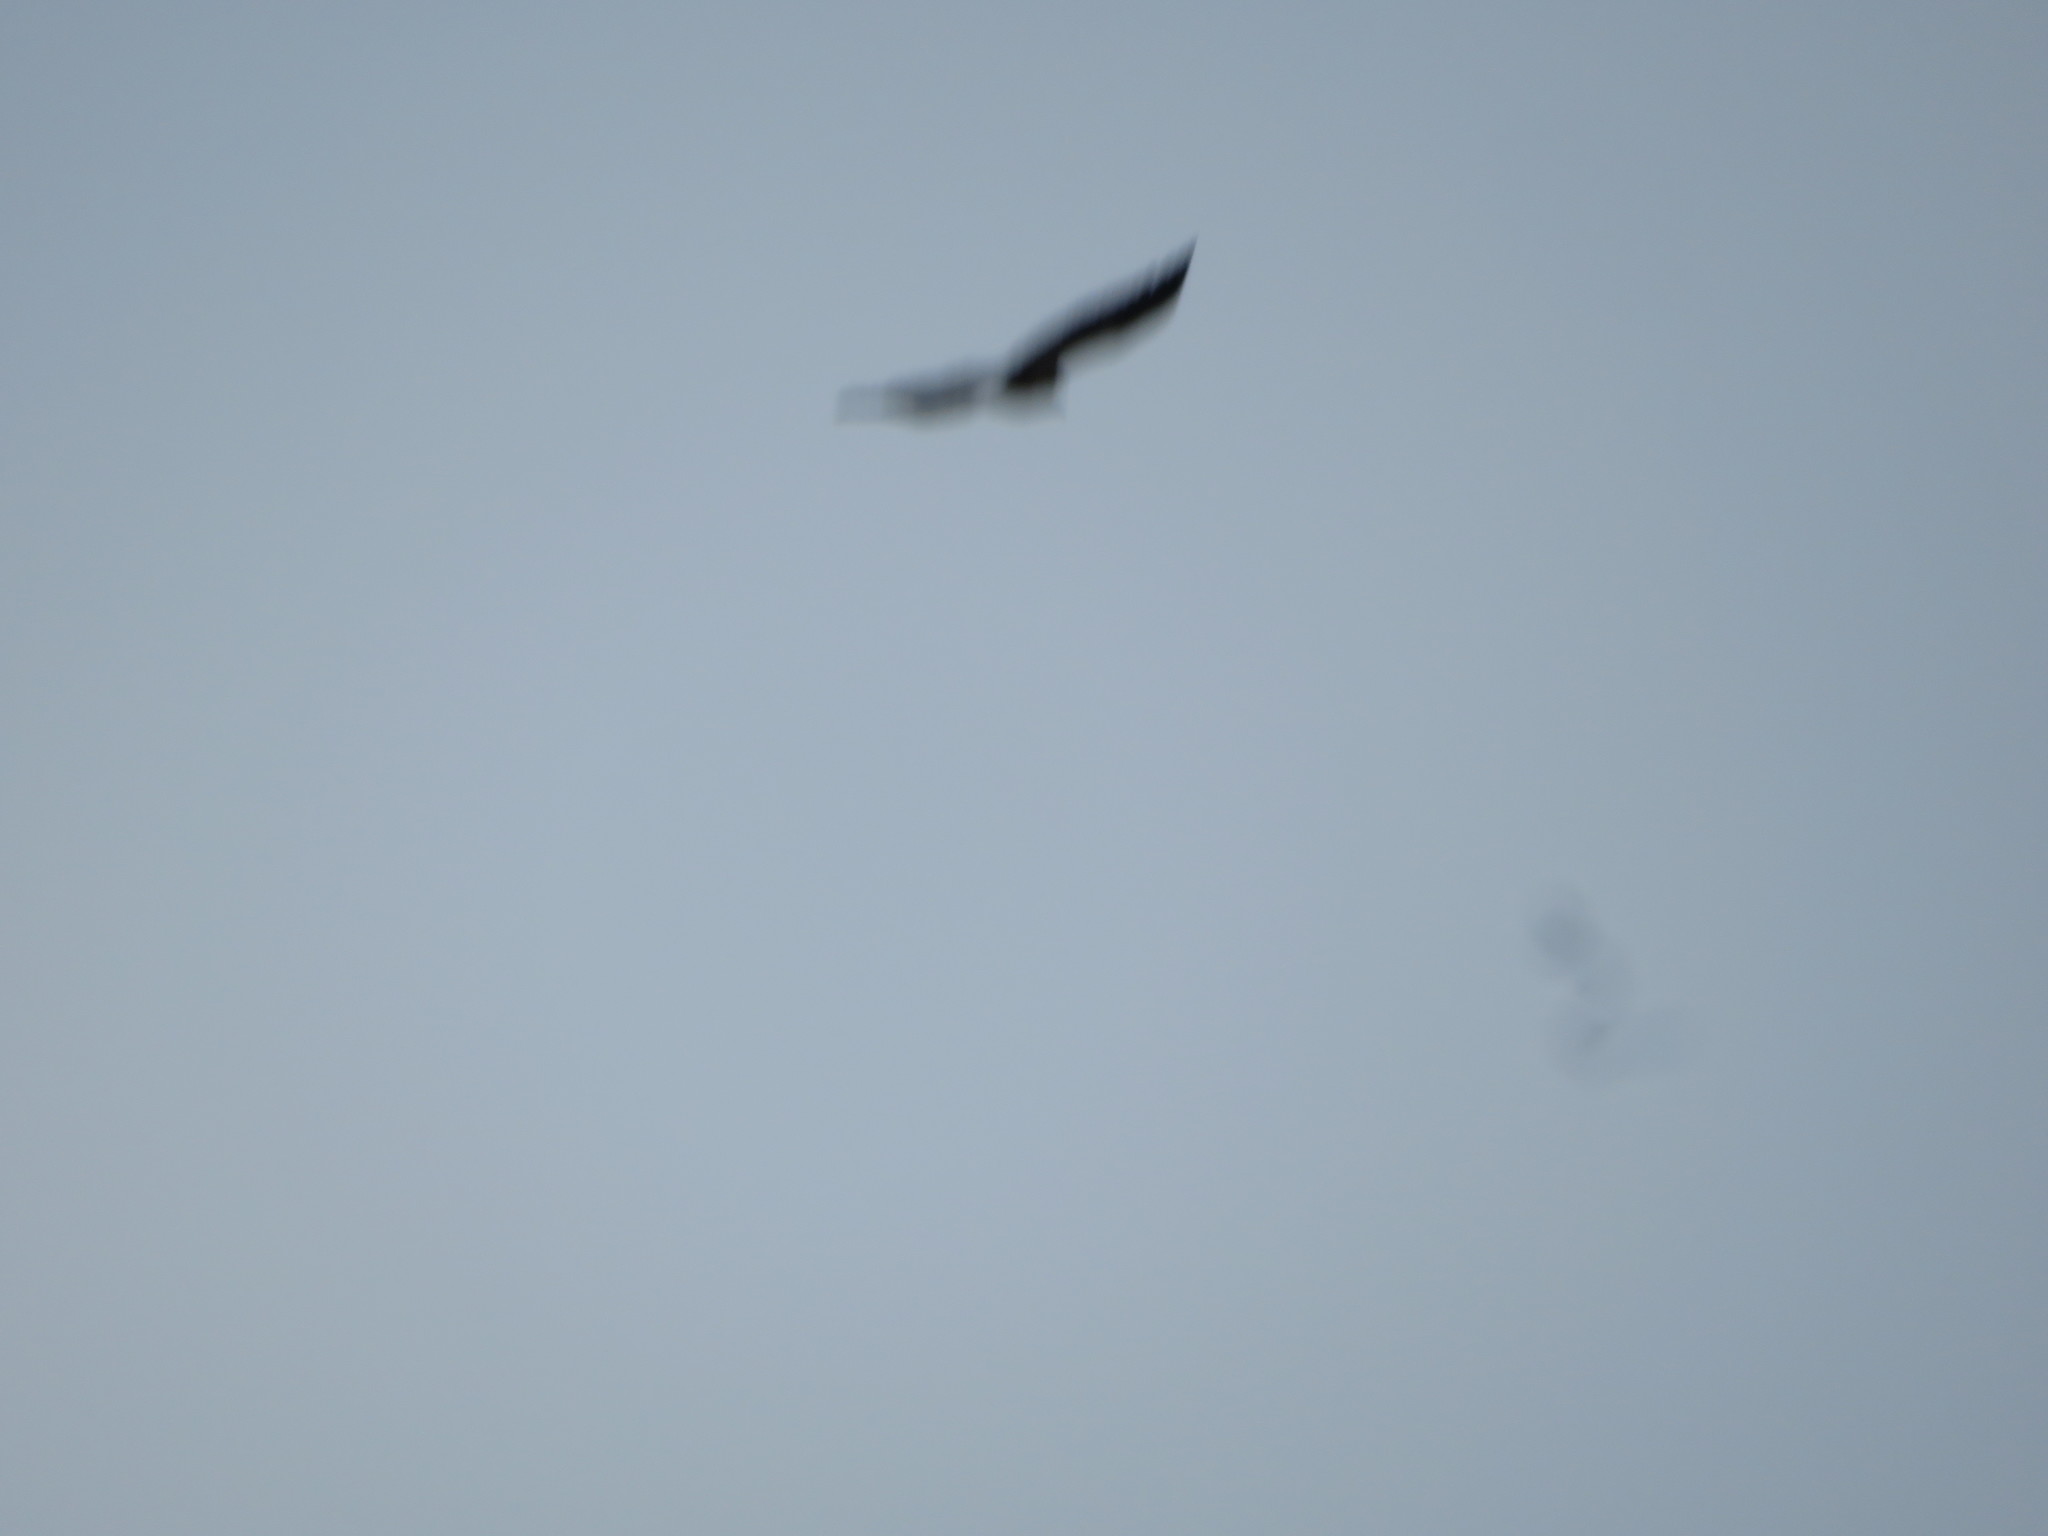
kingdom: Animalia
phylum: Chordata
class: Aves
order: Accipitriformes
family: Cathartidae
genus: Cathartes
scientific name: Cathartes aura
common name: Turkey vulture
